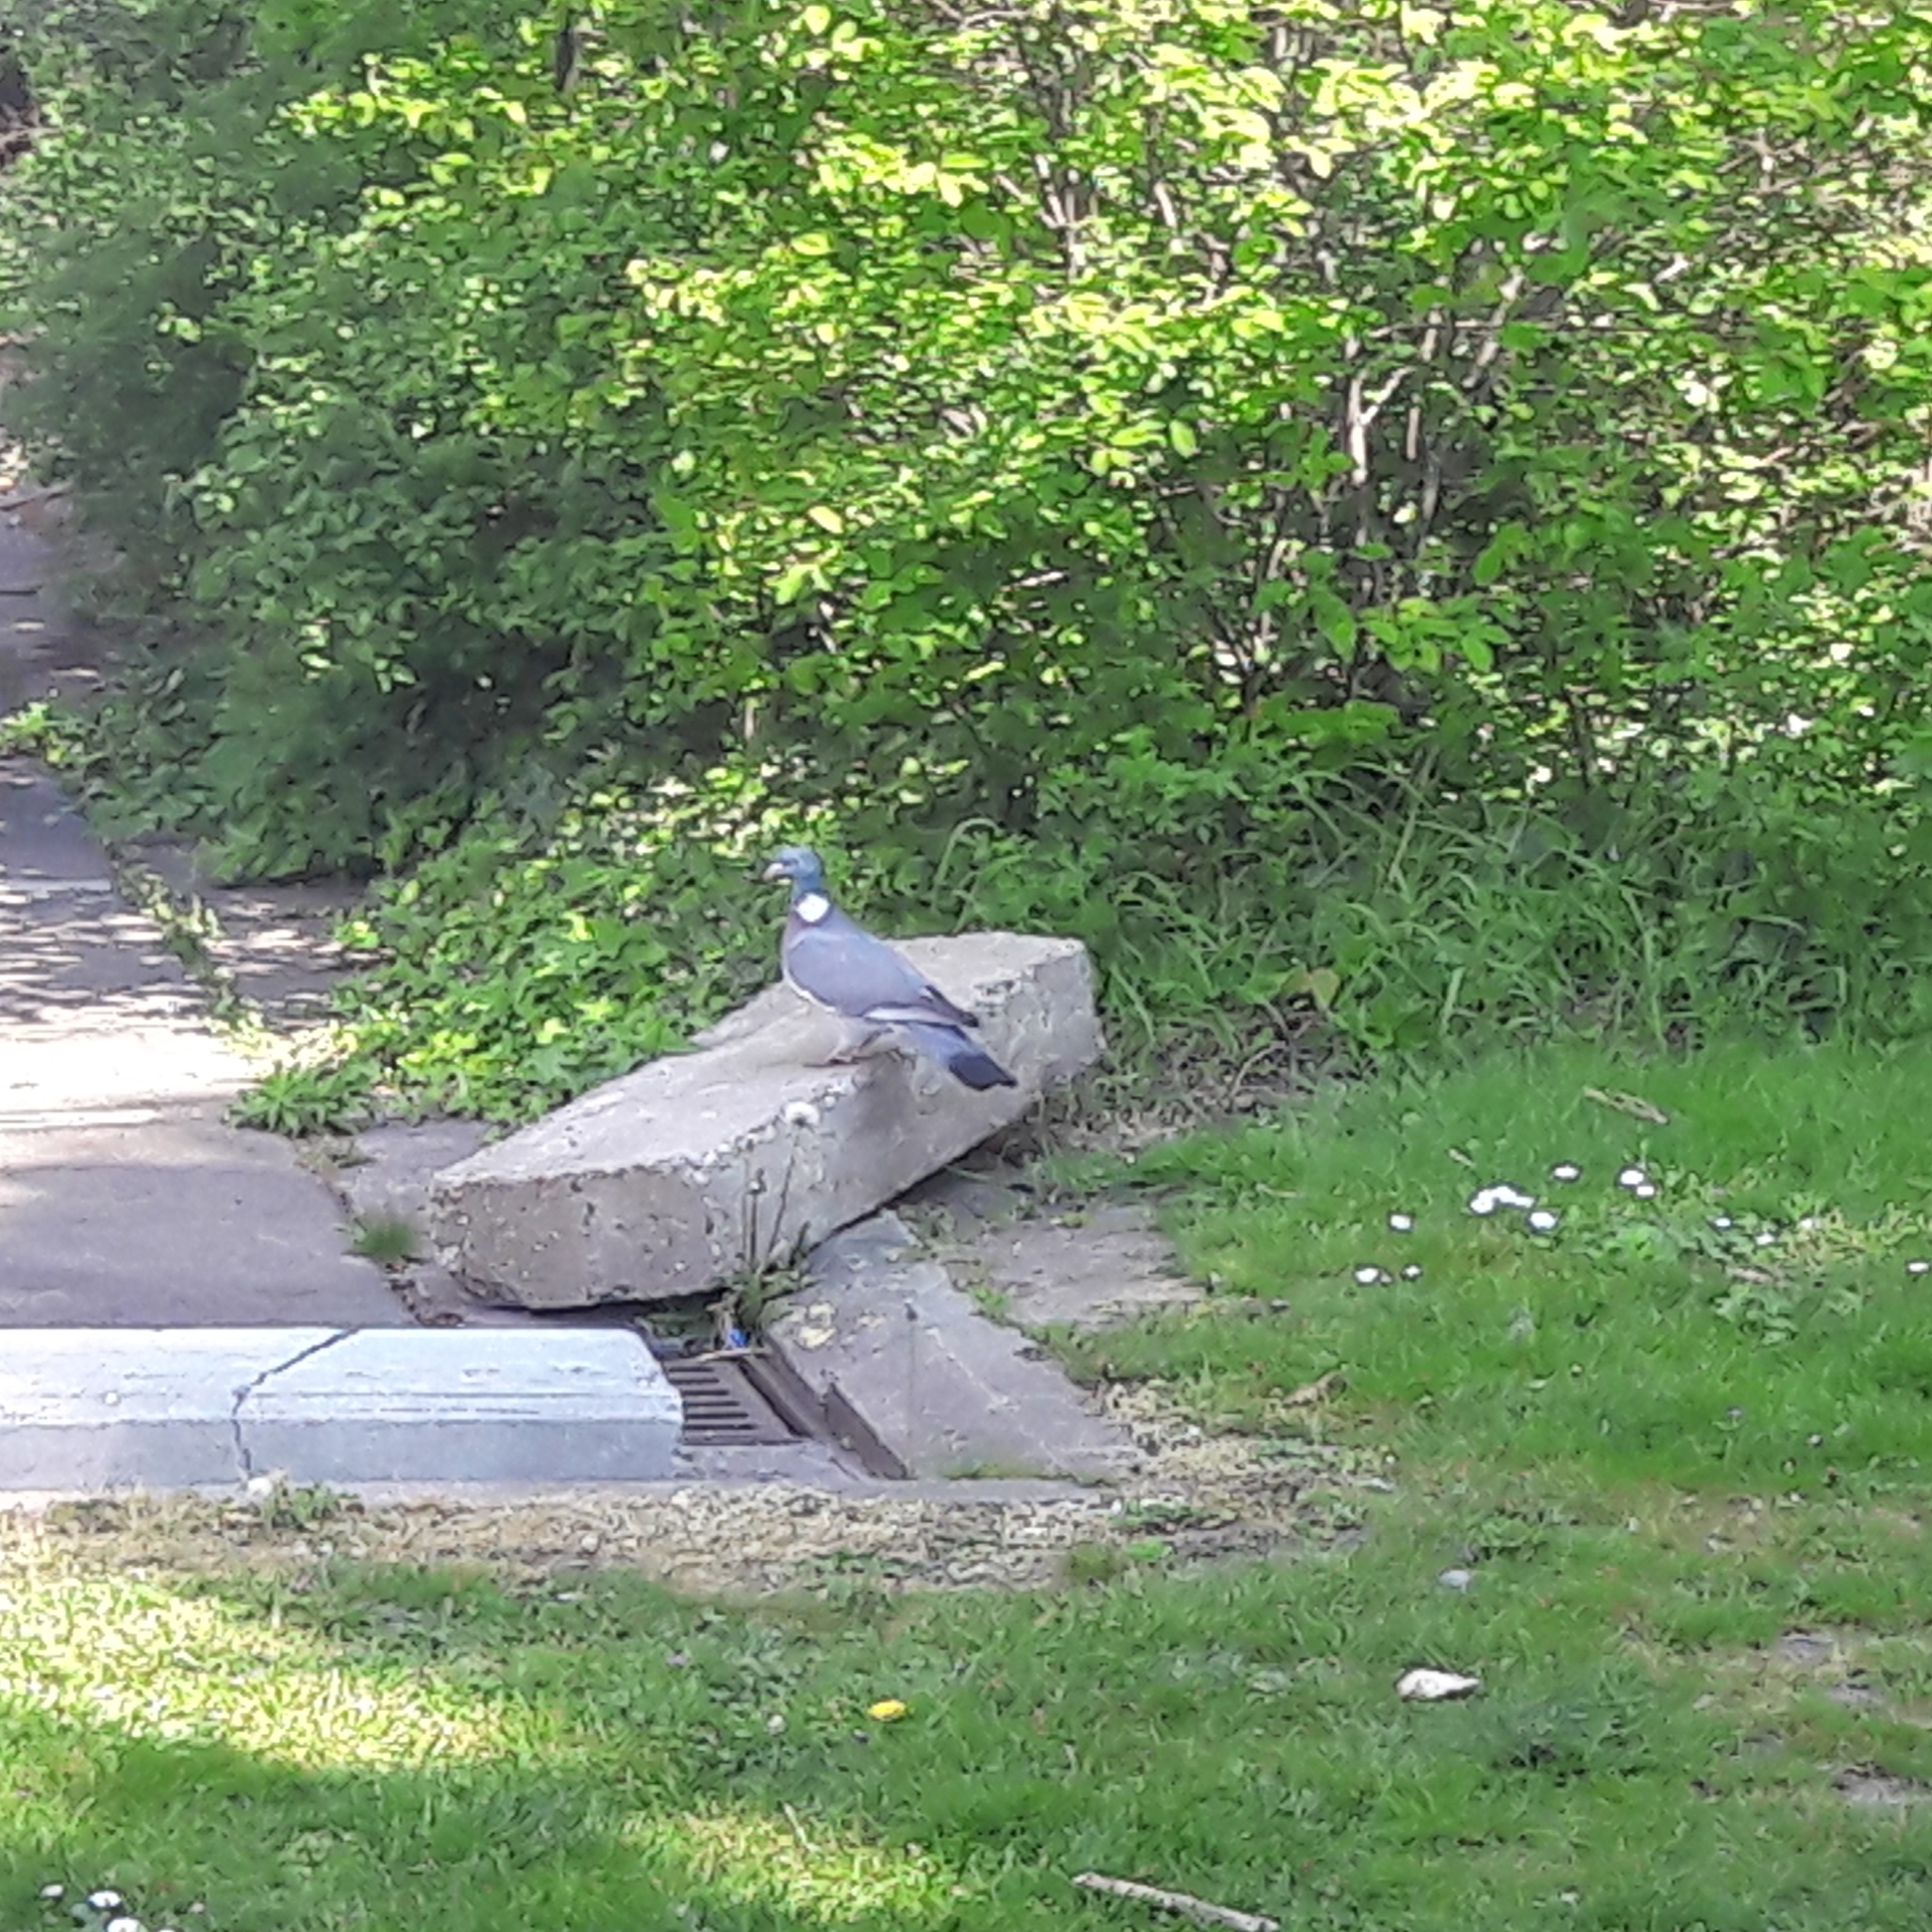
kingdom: Animalia
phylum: Chordata
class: Aves
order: Columbiformes
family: Columbidae
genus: Columba
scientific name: Columba palumbus
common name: Common wood pigeon
